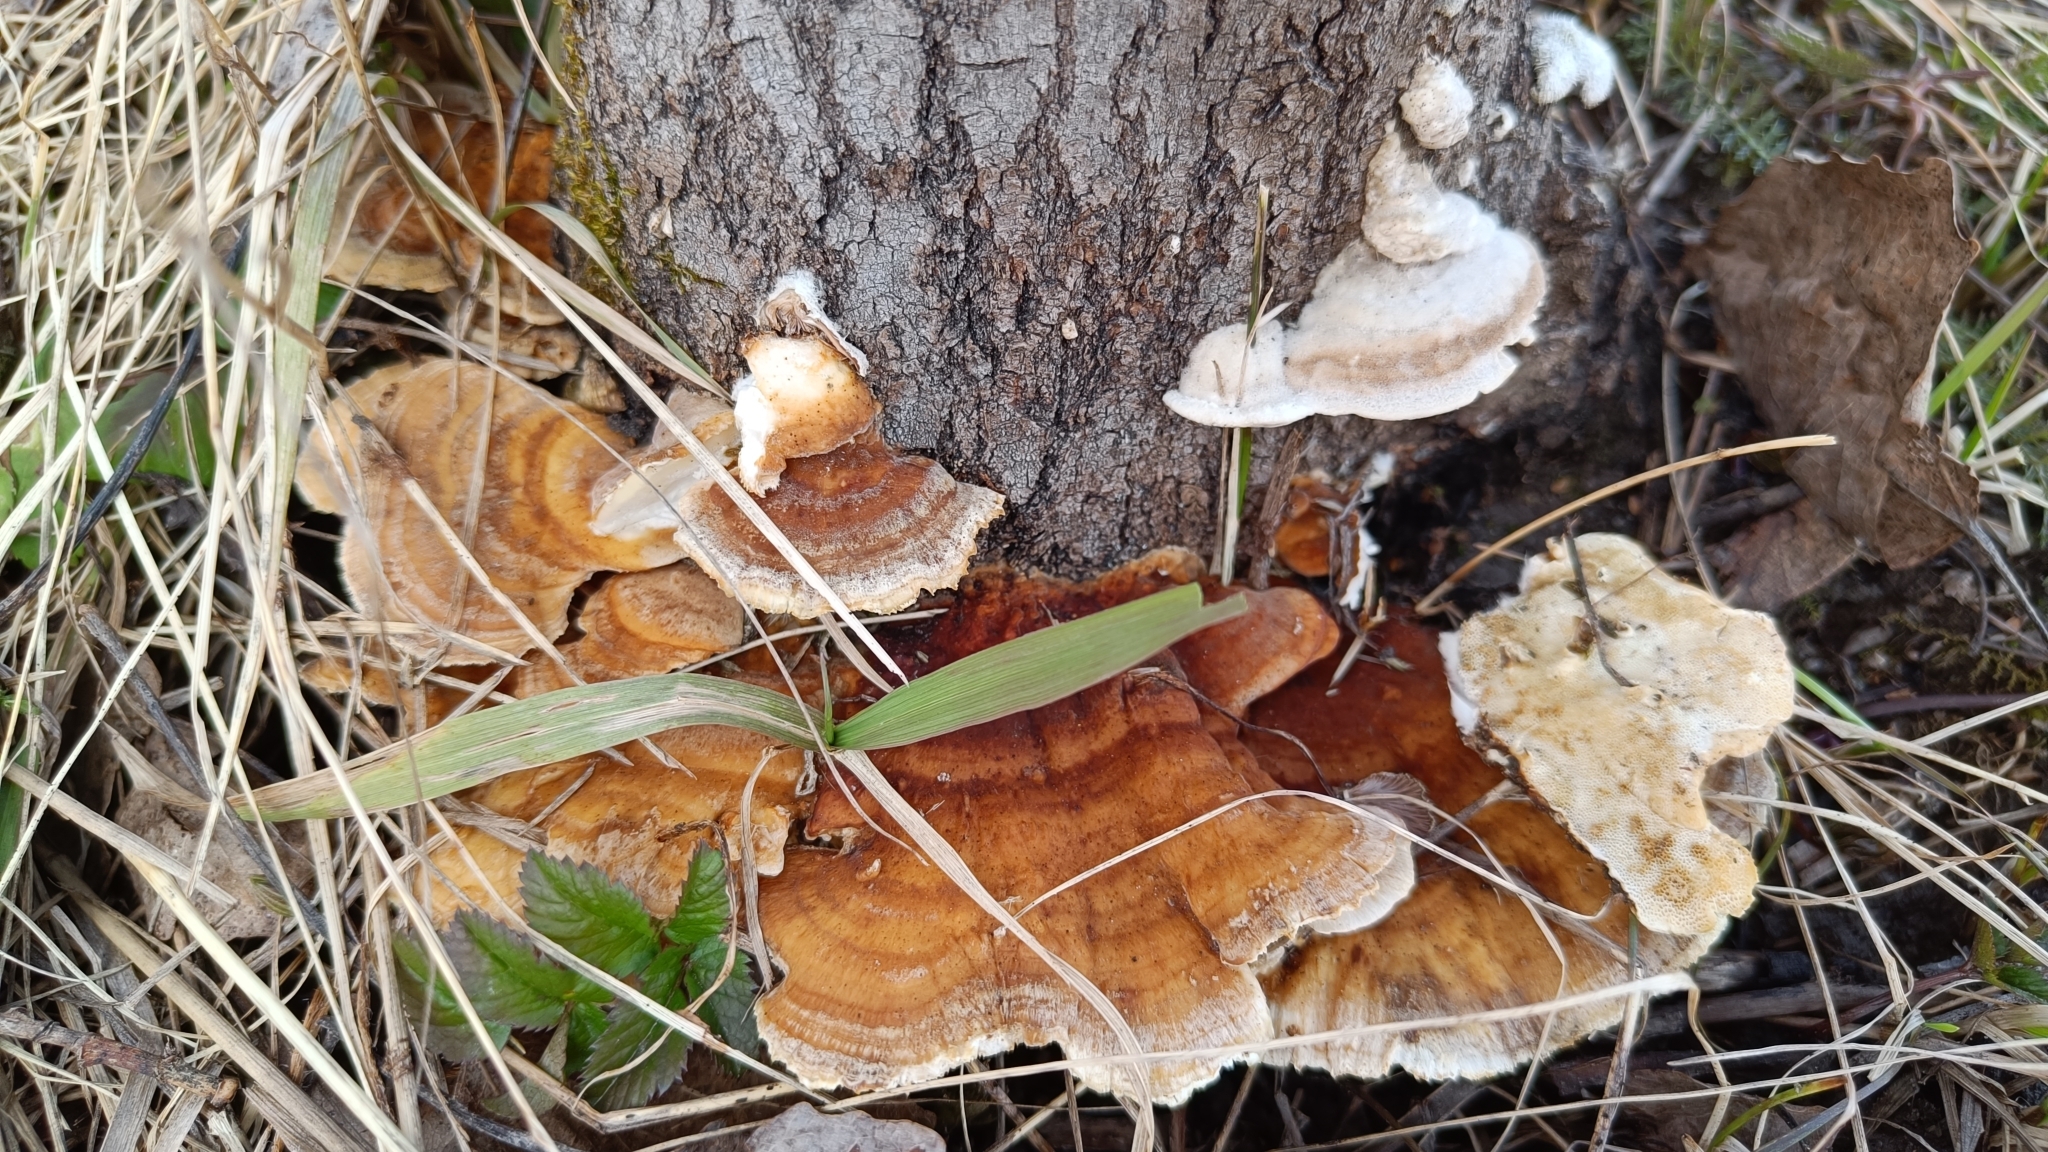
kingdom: Fungi
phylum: Basidiomycota
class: Agaricomycetes
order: Polyporales
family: Polyporaceae
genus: Trametes
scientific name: Trametes ochracea
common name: Ochre bracket
